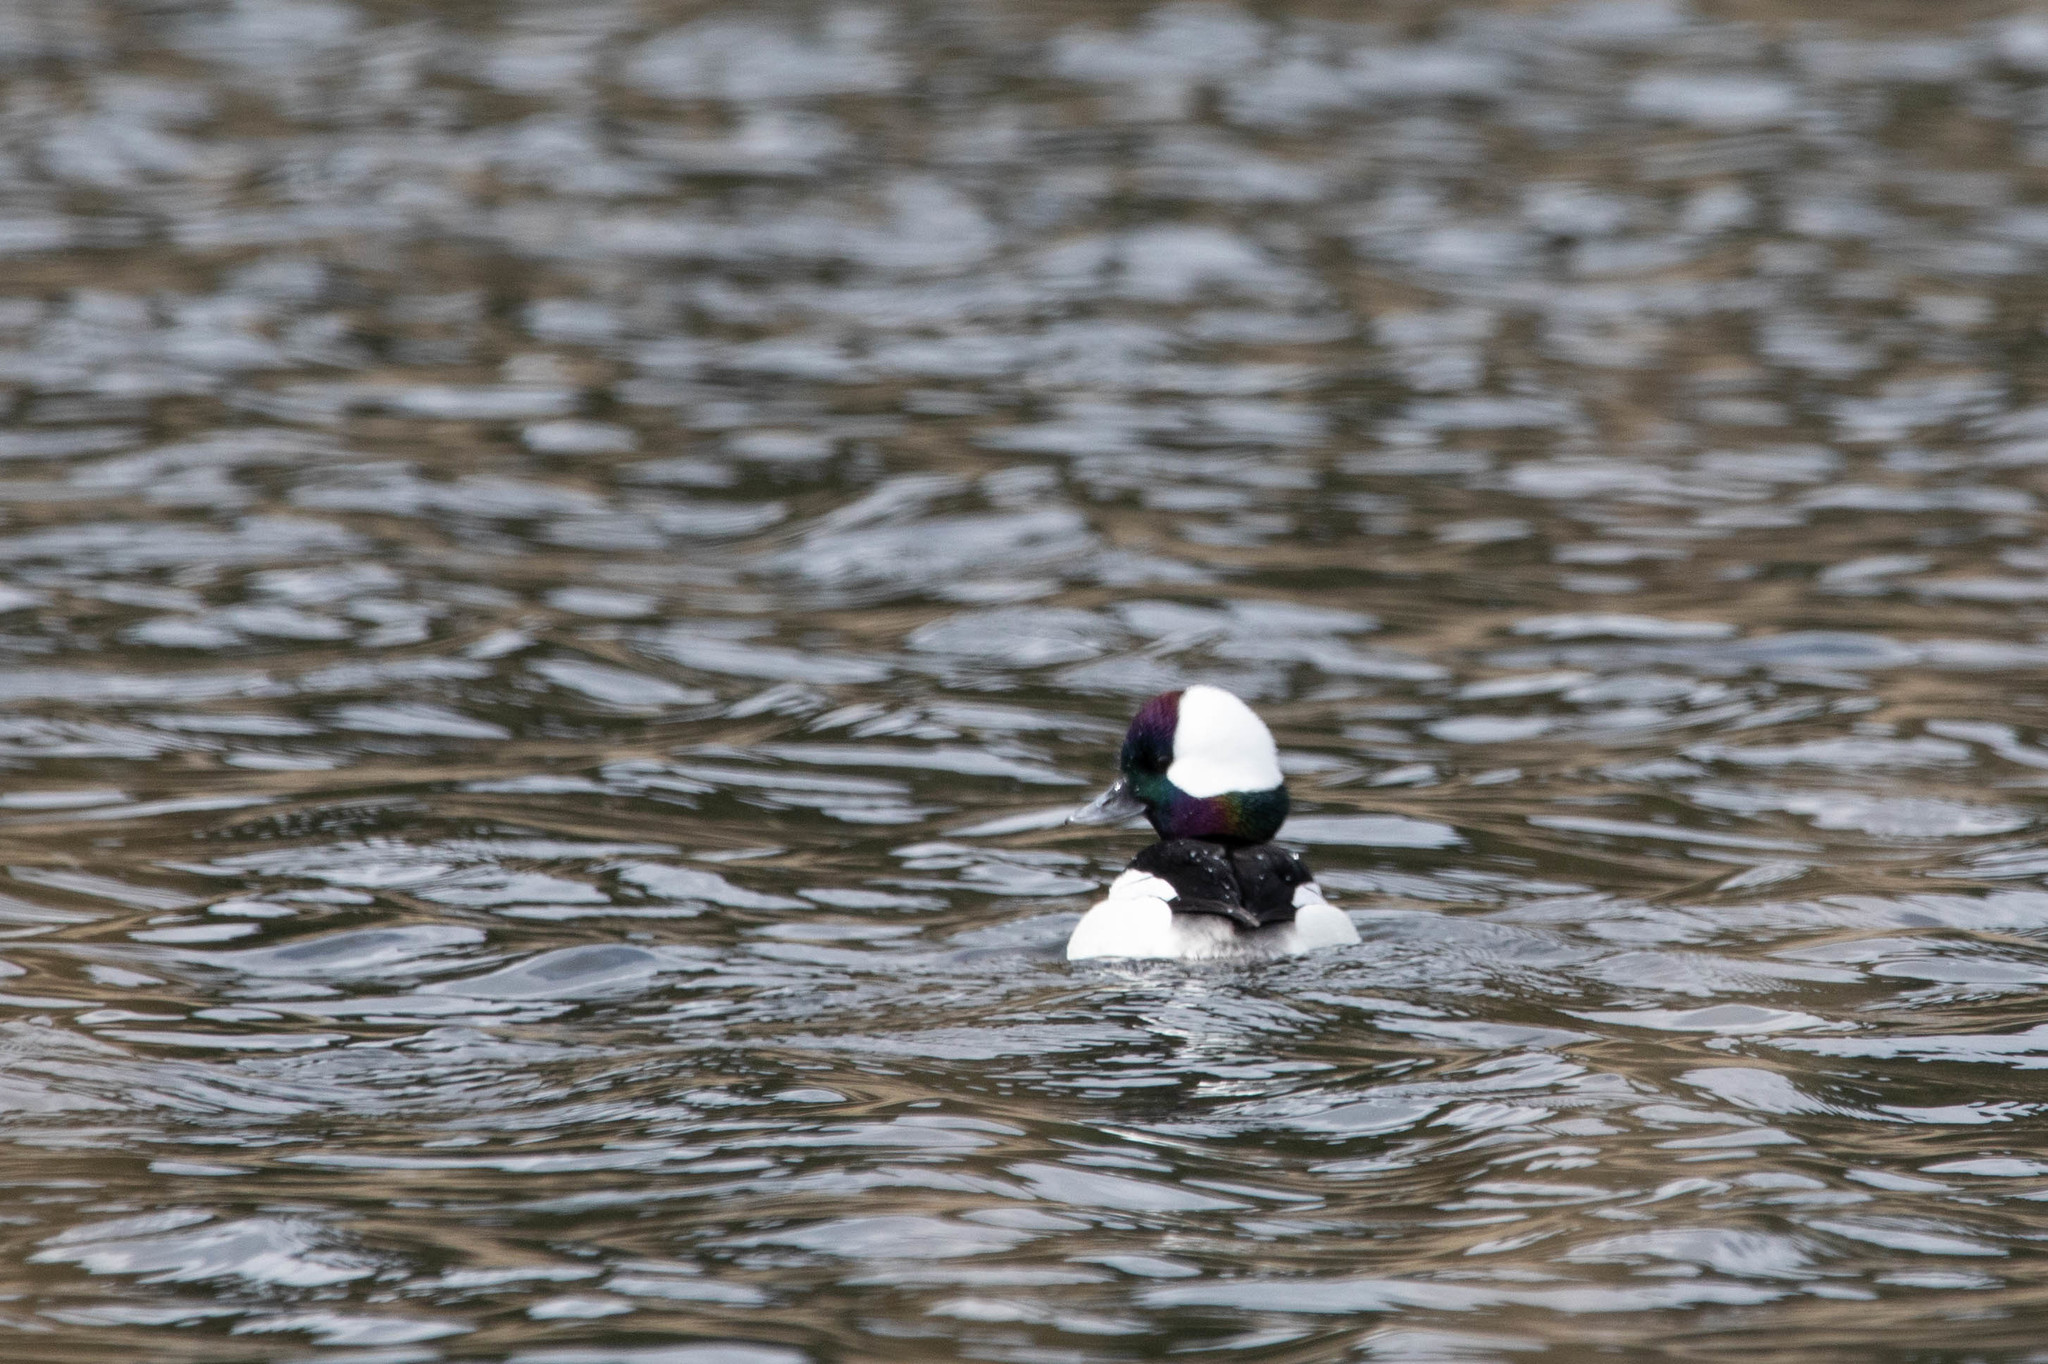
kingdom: Animalia
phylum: Chordata
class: Aves
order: Anseriformes
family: Anatidae
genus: Bucephala
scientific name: Bucephala albeola
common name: Bufflehead
